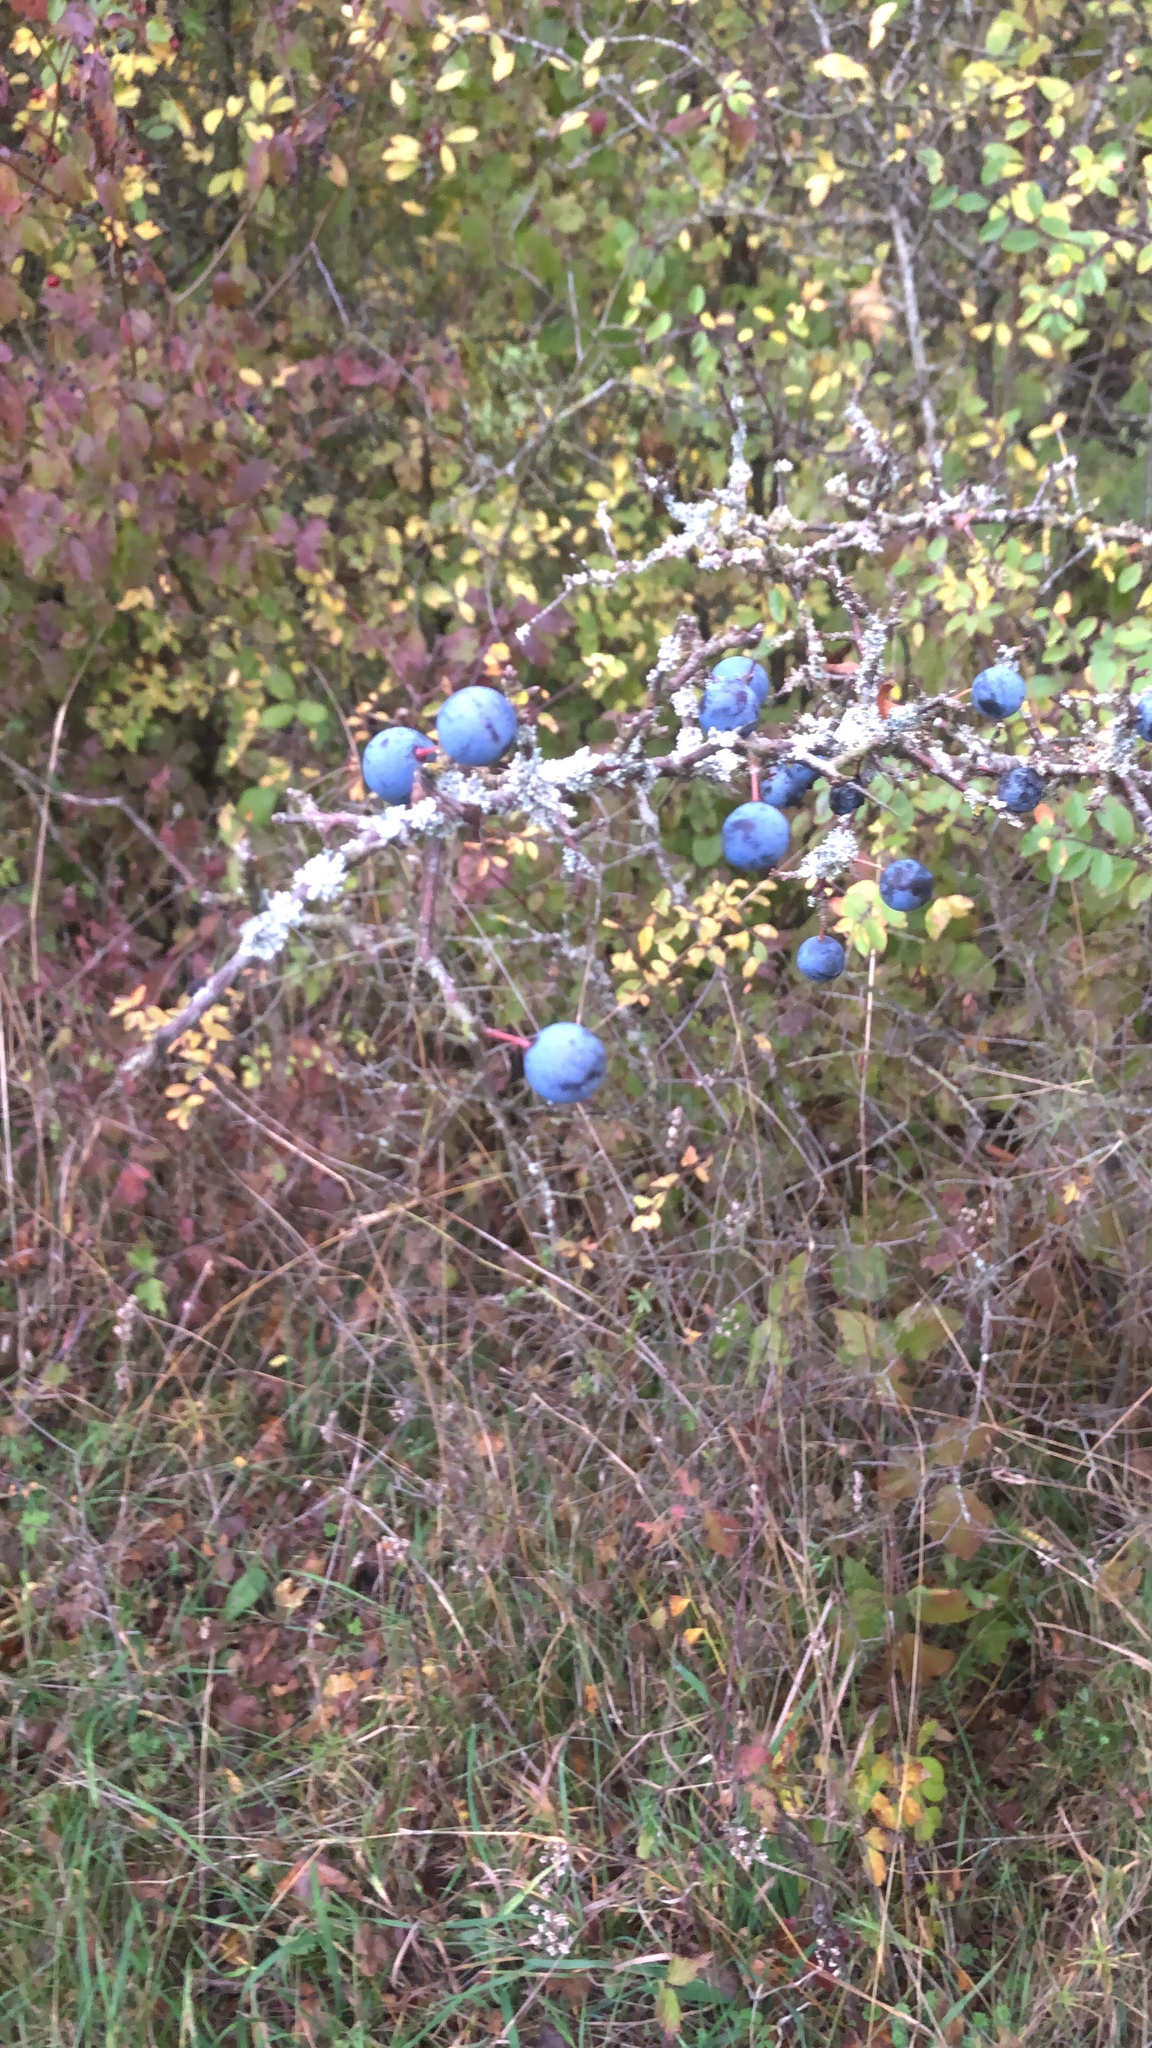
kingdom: Plantae
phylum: Tracheophyta
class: Magnoliopsida
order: Rosales
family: Rosaceae
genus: Prunus
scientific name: Prunus spinosa
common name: Blackthorn
